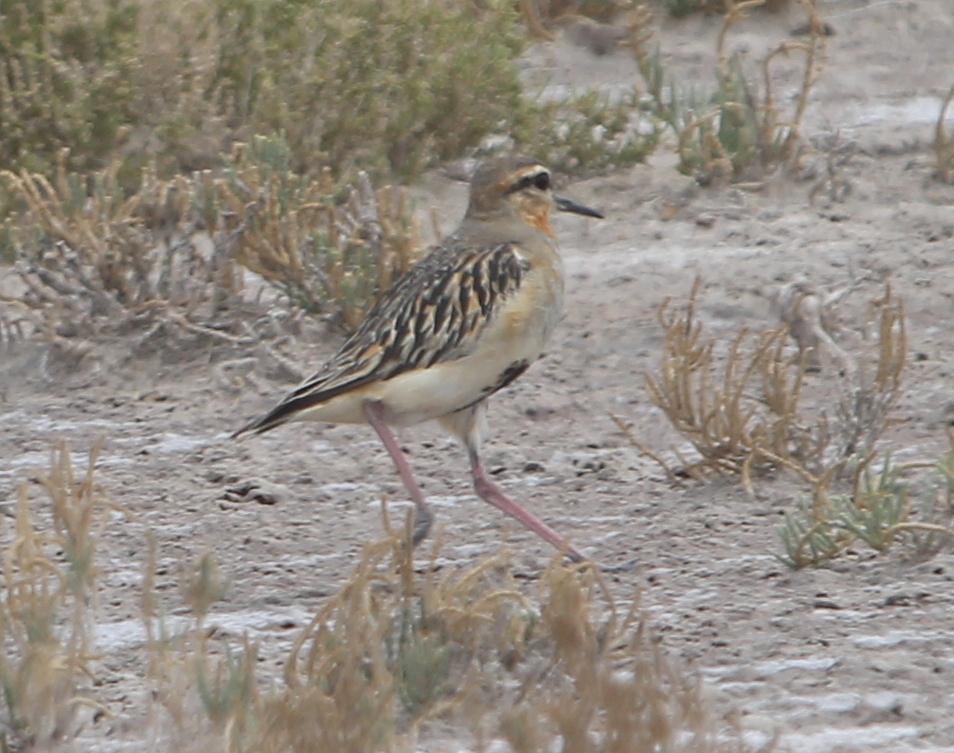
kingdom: Animalia
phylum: Chordata
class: Aves
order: Charadriiformes
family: Charadriidae
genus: Oreopholus
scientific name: Oreopholus ruficollis
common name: Tawny-throated dotterel
